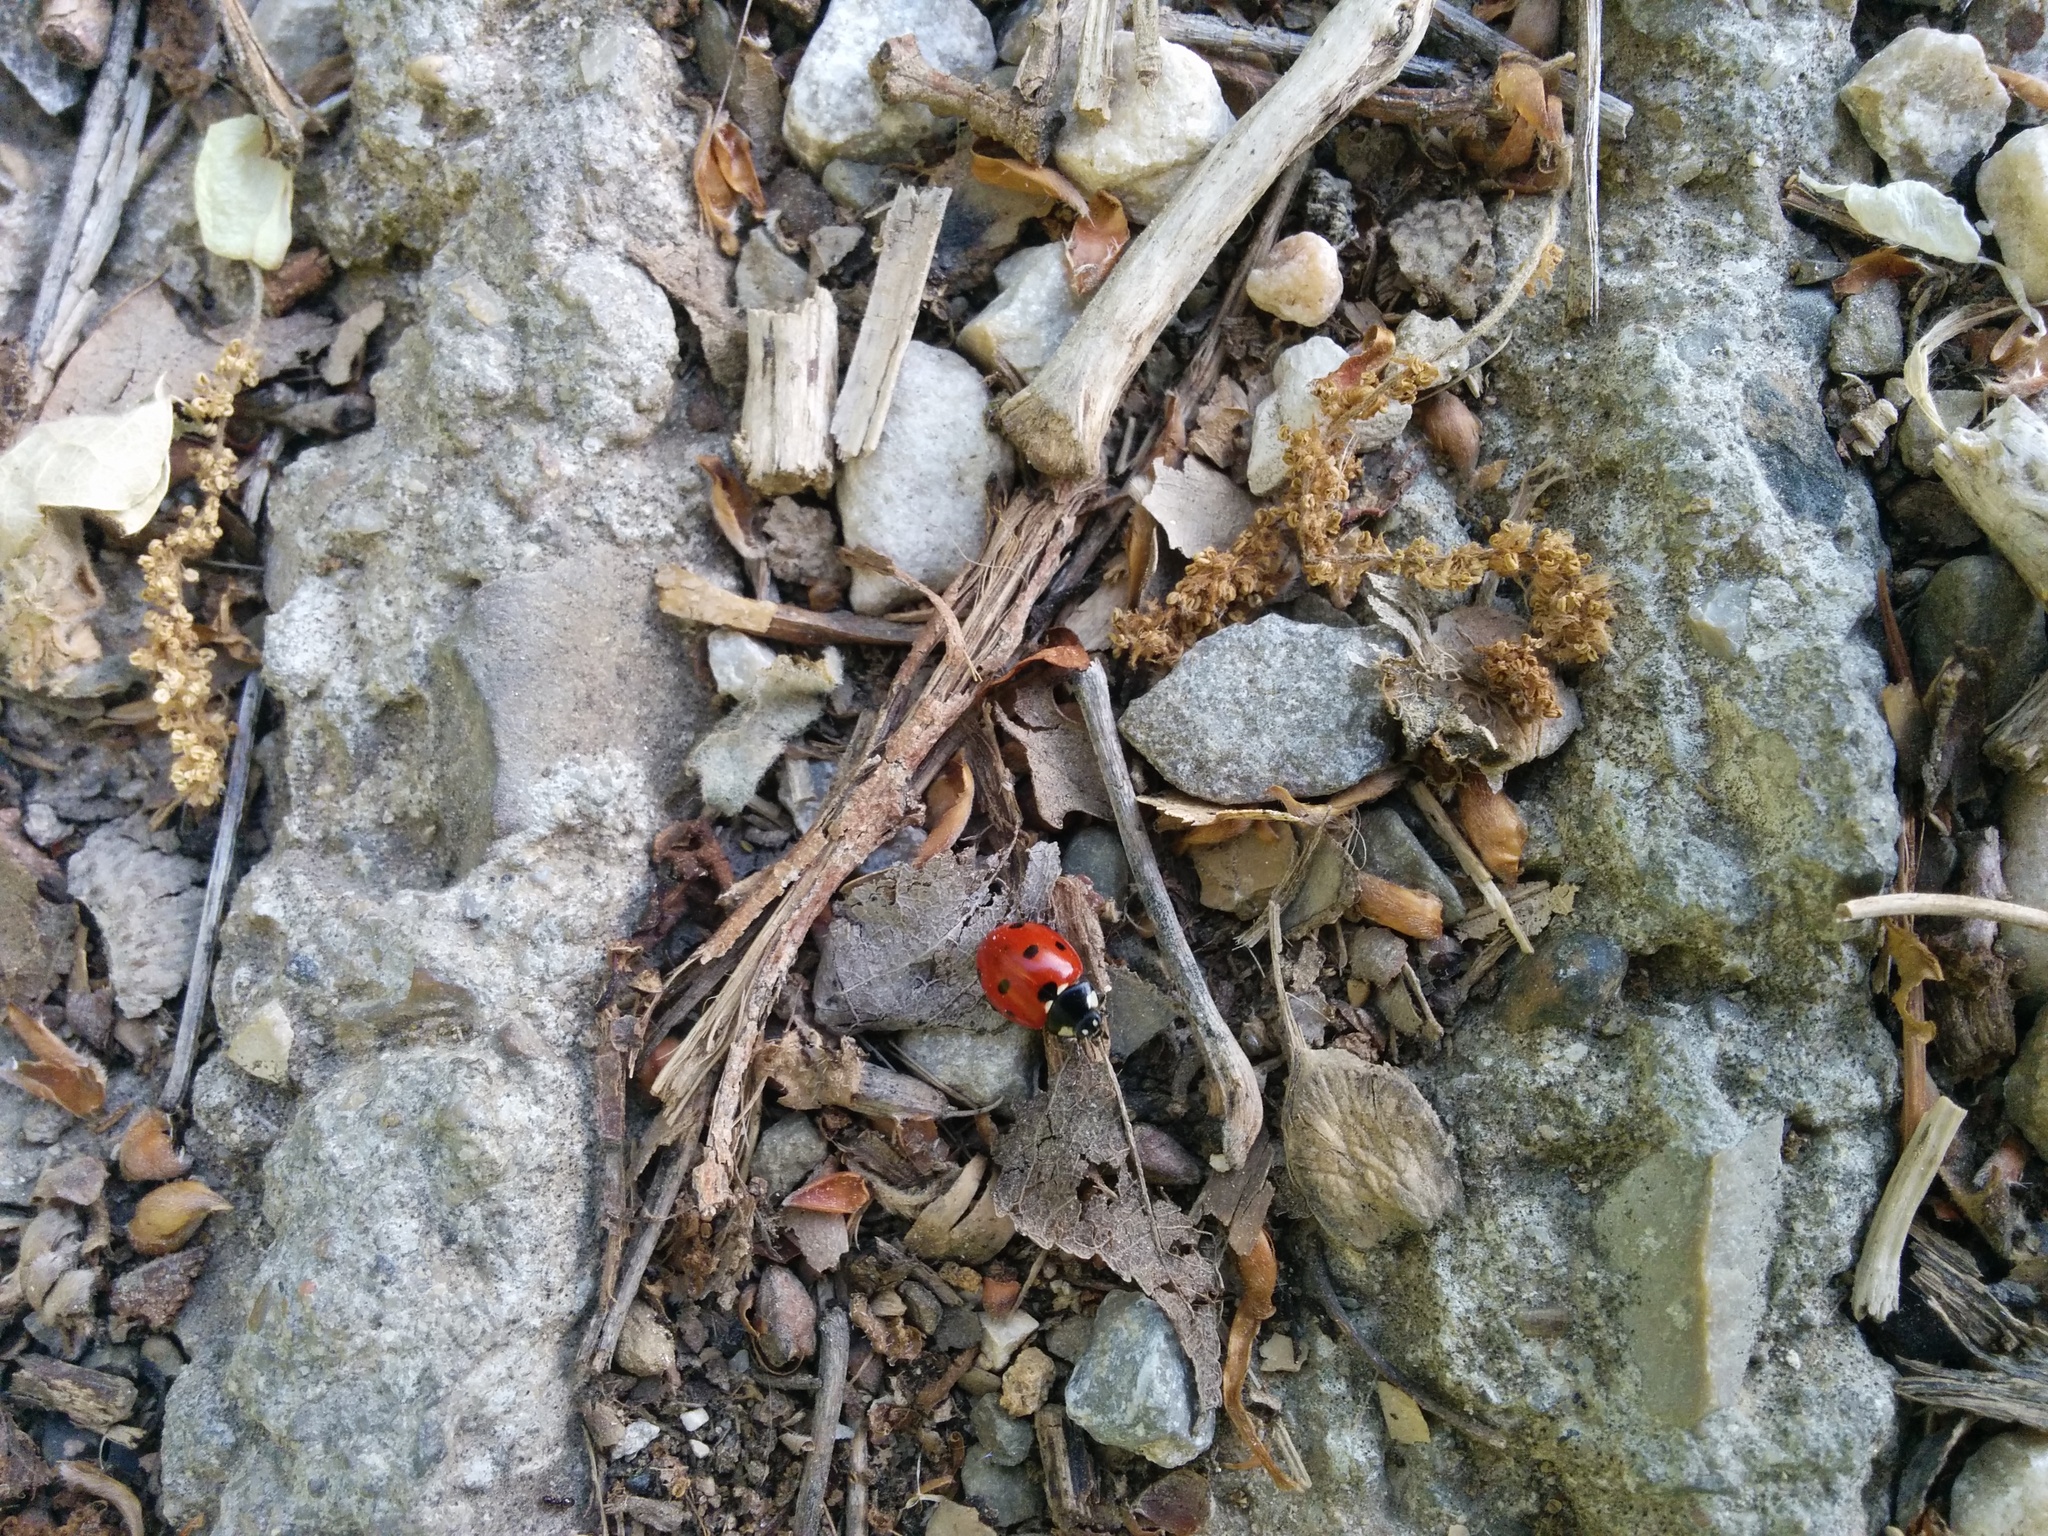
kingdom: Animalia
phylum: Arthropoda
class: Insecta
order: Coleoptera
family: Coccinellidae
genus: Coccinella
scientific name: Coccinella septempunctata
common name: Sevenspotted lady beetle
